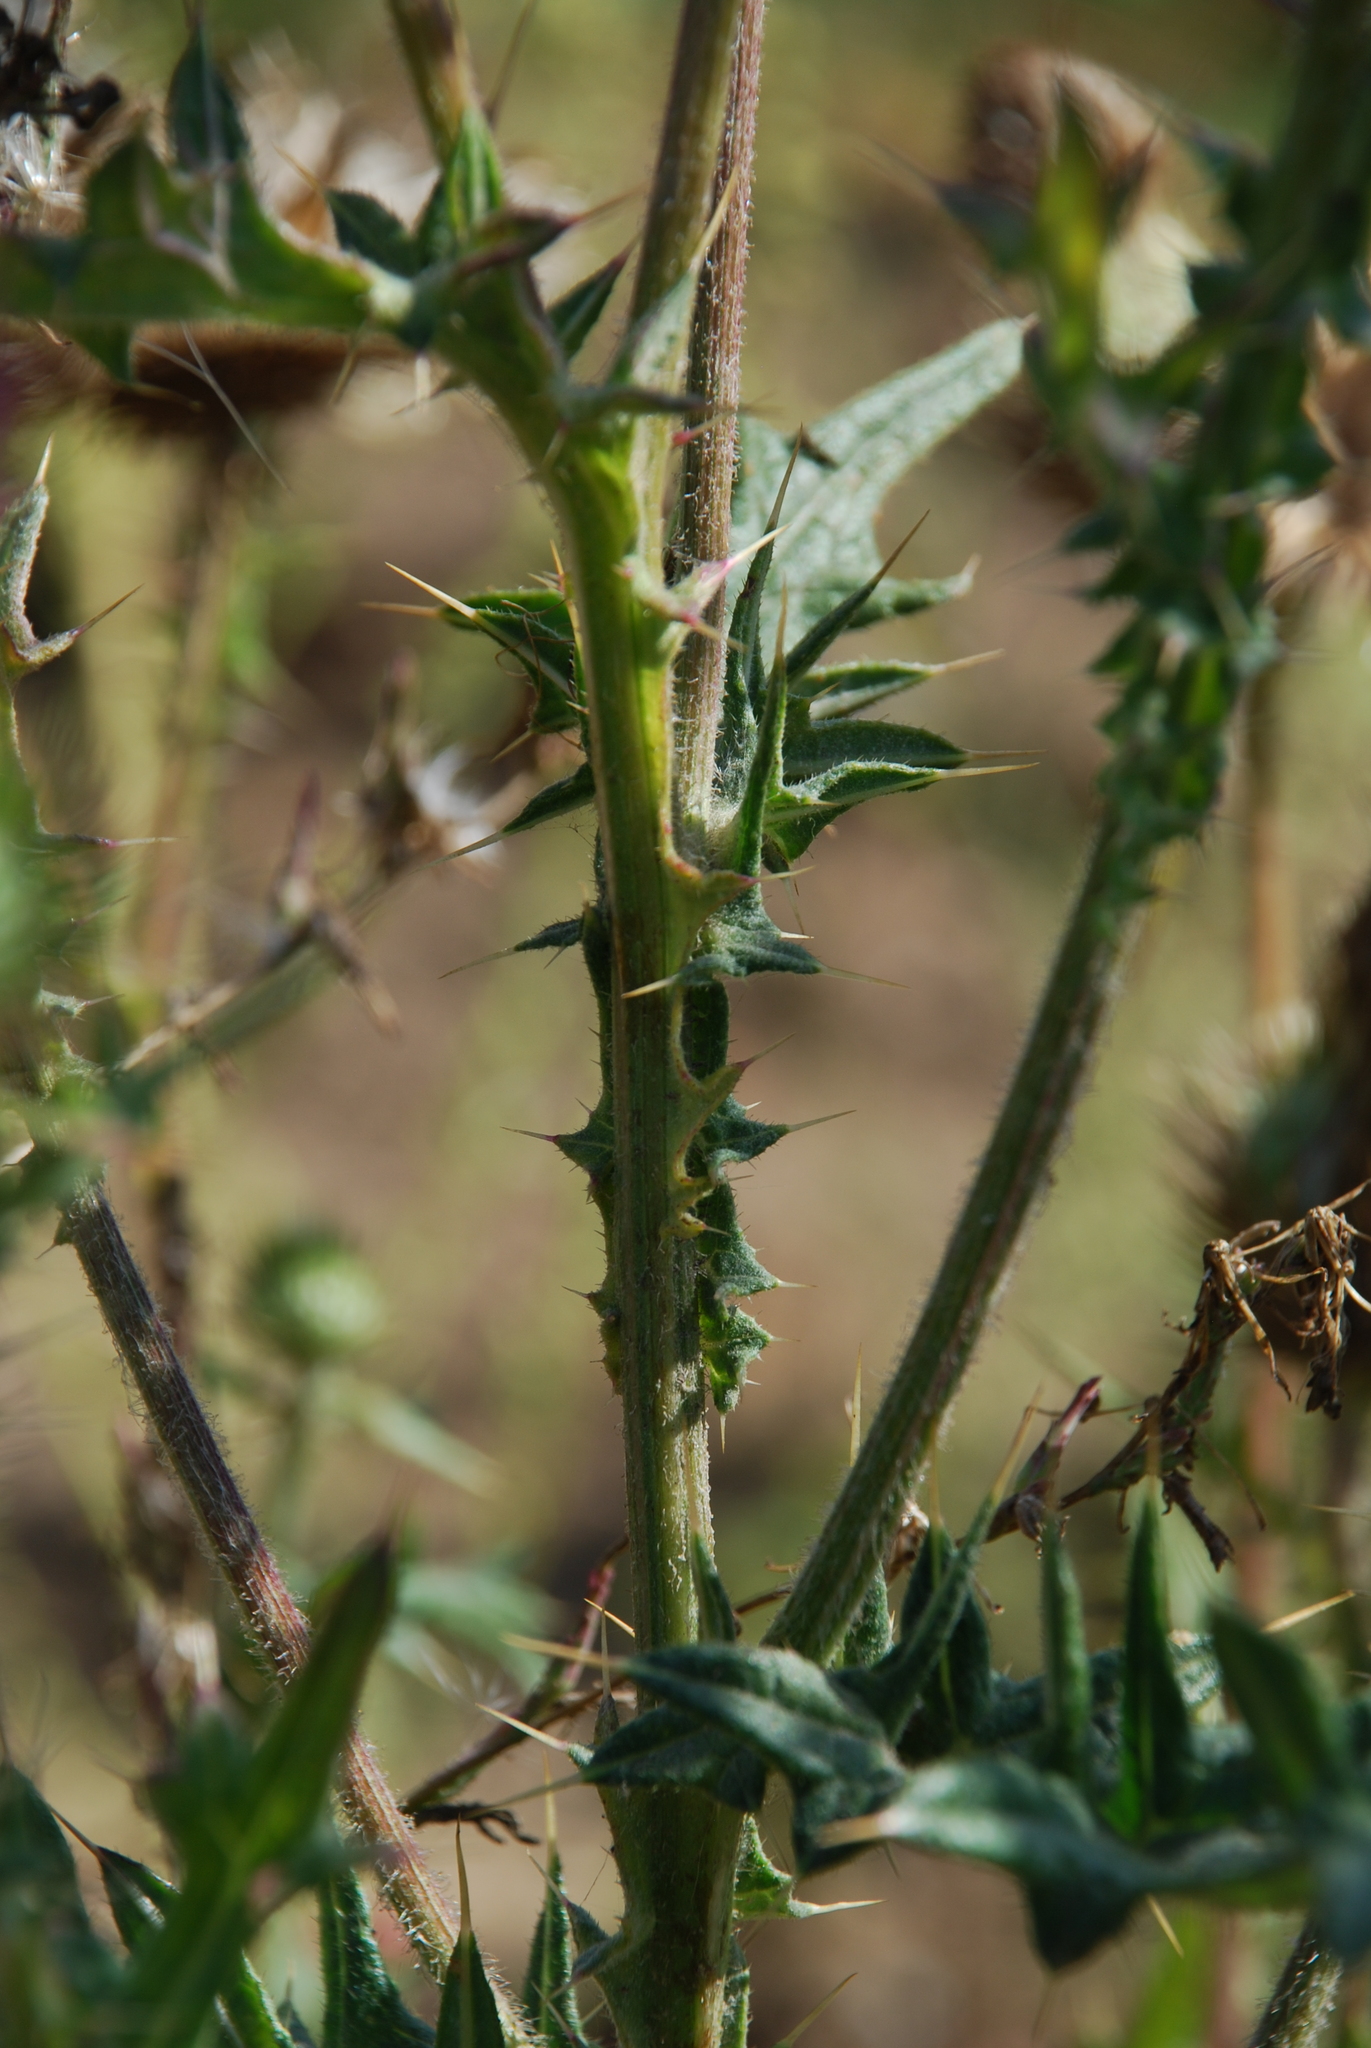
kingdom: Plantae
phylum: Tracheophyta
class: Magnoliopsida
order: Asterales
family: Asteraceae
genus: Cirsium
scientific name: Cirsium vulgare
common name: Bull thistle
